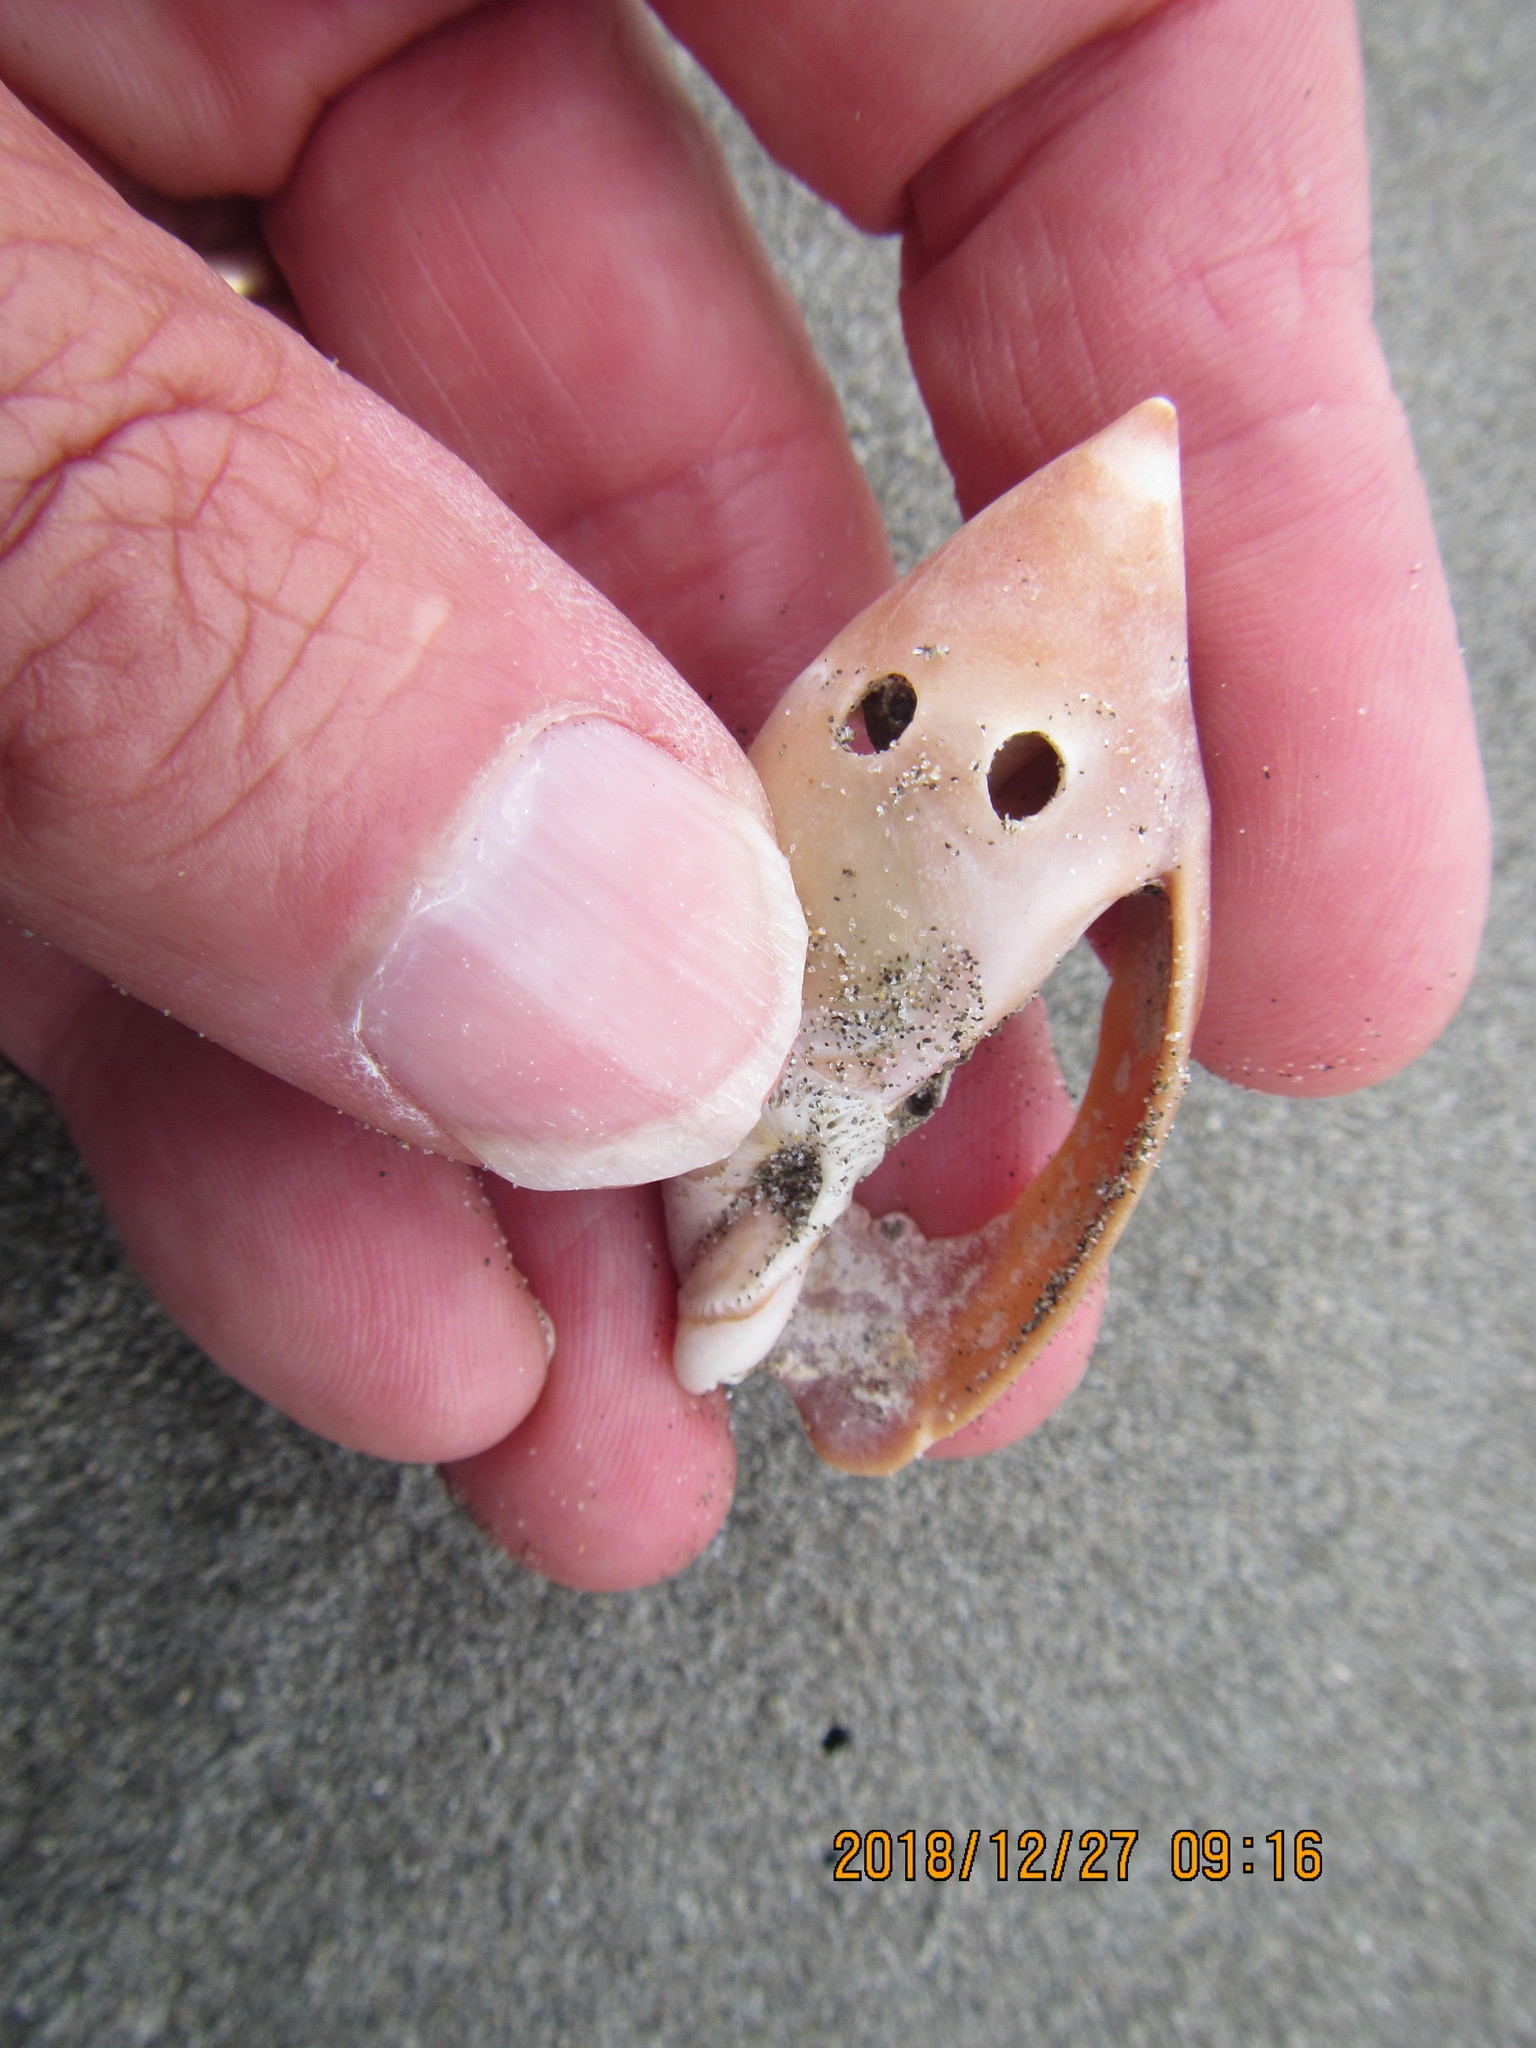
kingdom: Animalia
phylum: Mollusca
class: Gastropoda
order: Neogastropoda
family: Ancillariidae
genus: Amalda
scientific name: Amalda mucronata
